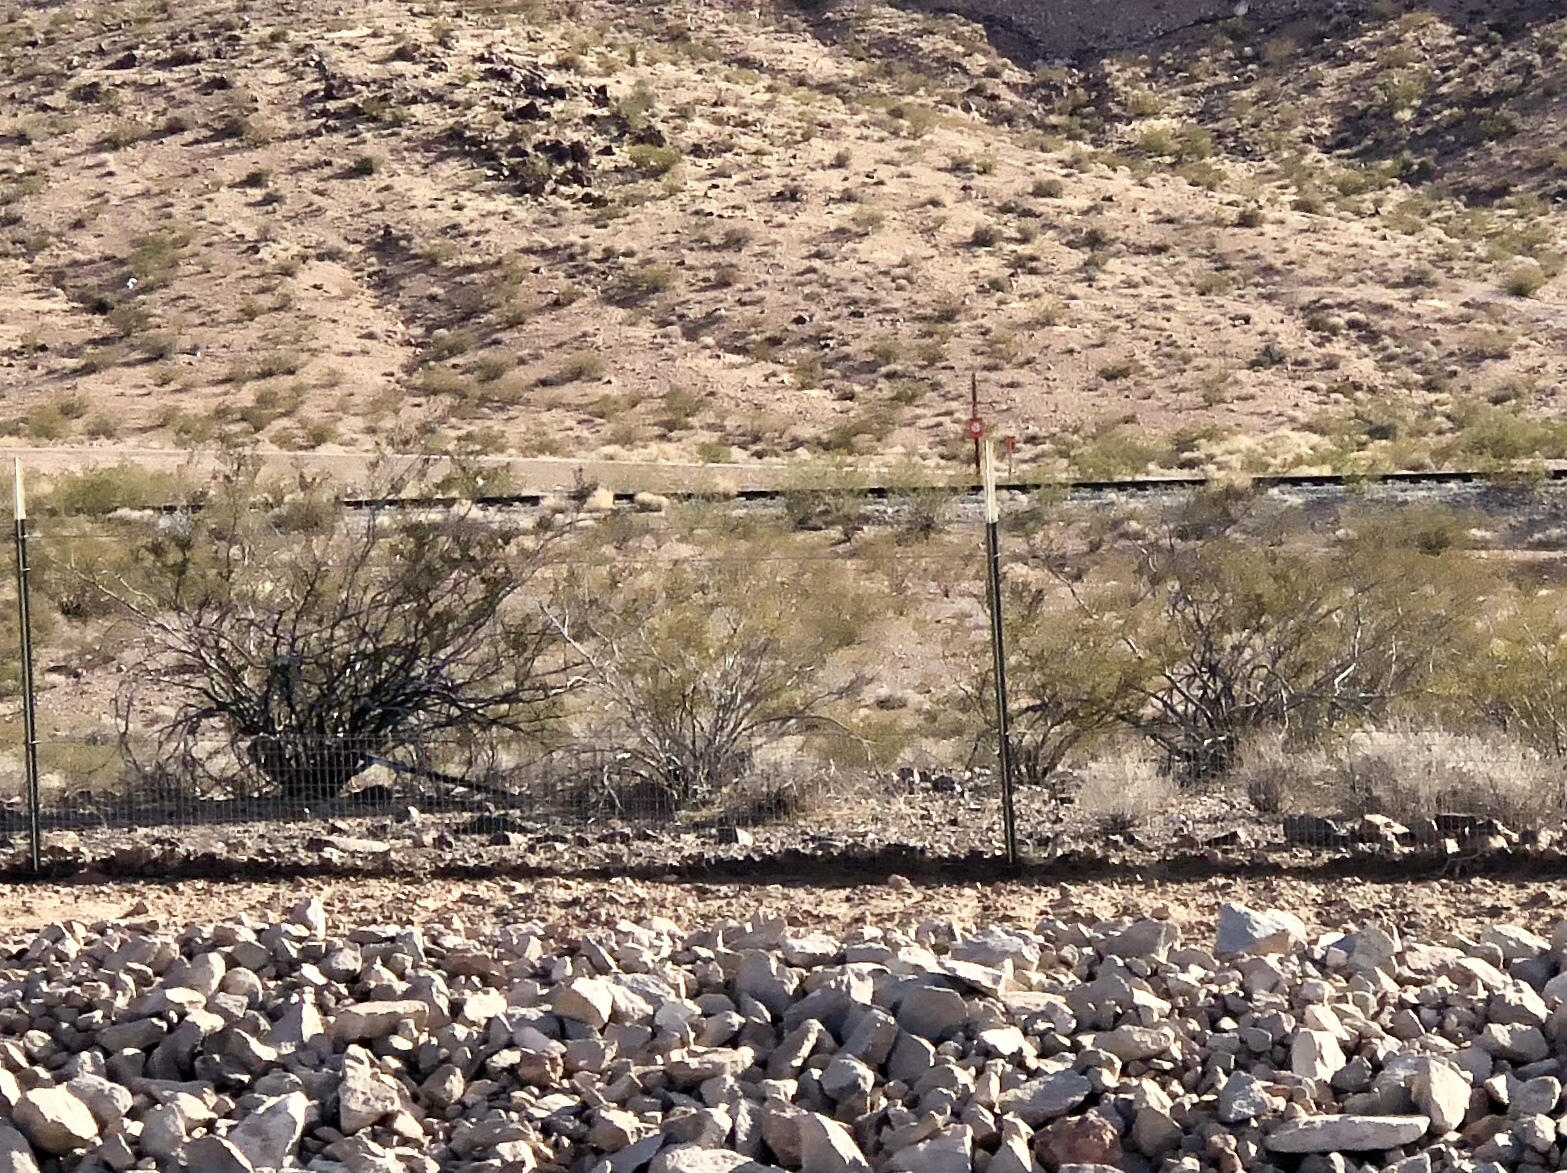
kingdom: Plantae
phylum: Tracheophyta
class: Magnoliopsida
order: Zygophyllales
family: Zygophyllaceae
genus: Larrea
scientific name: Larrea tridentata
